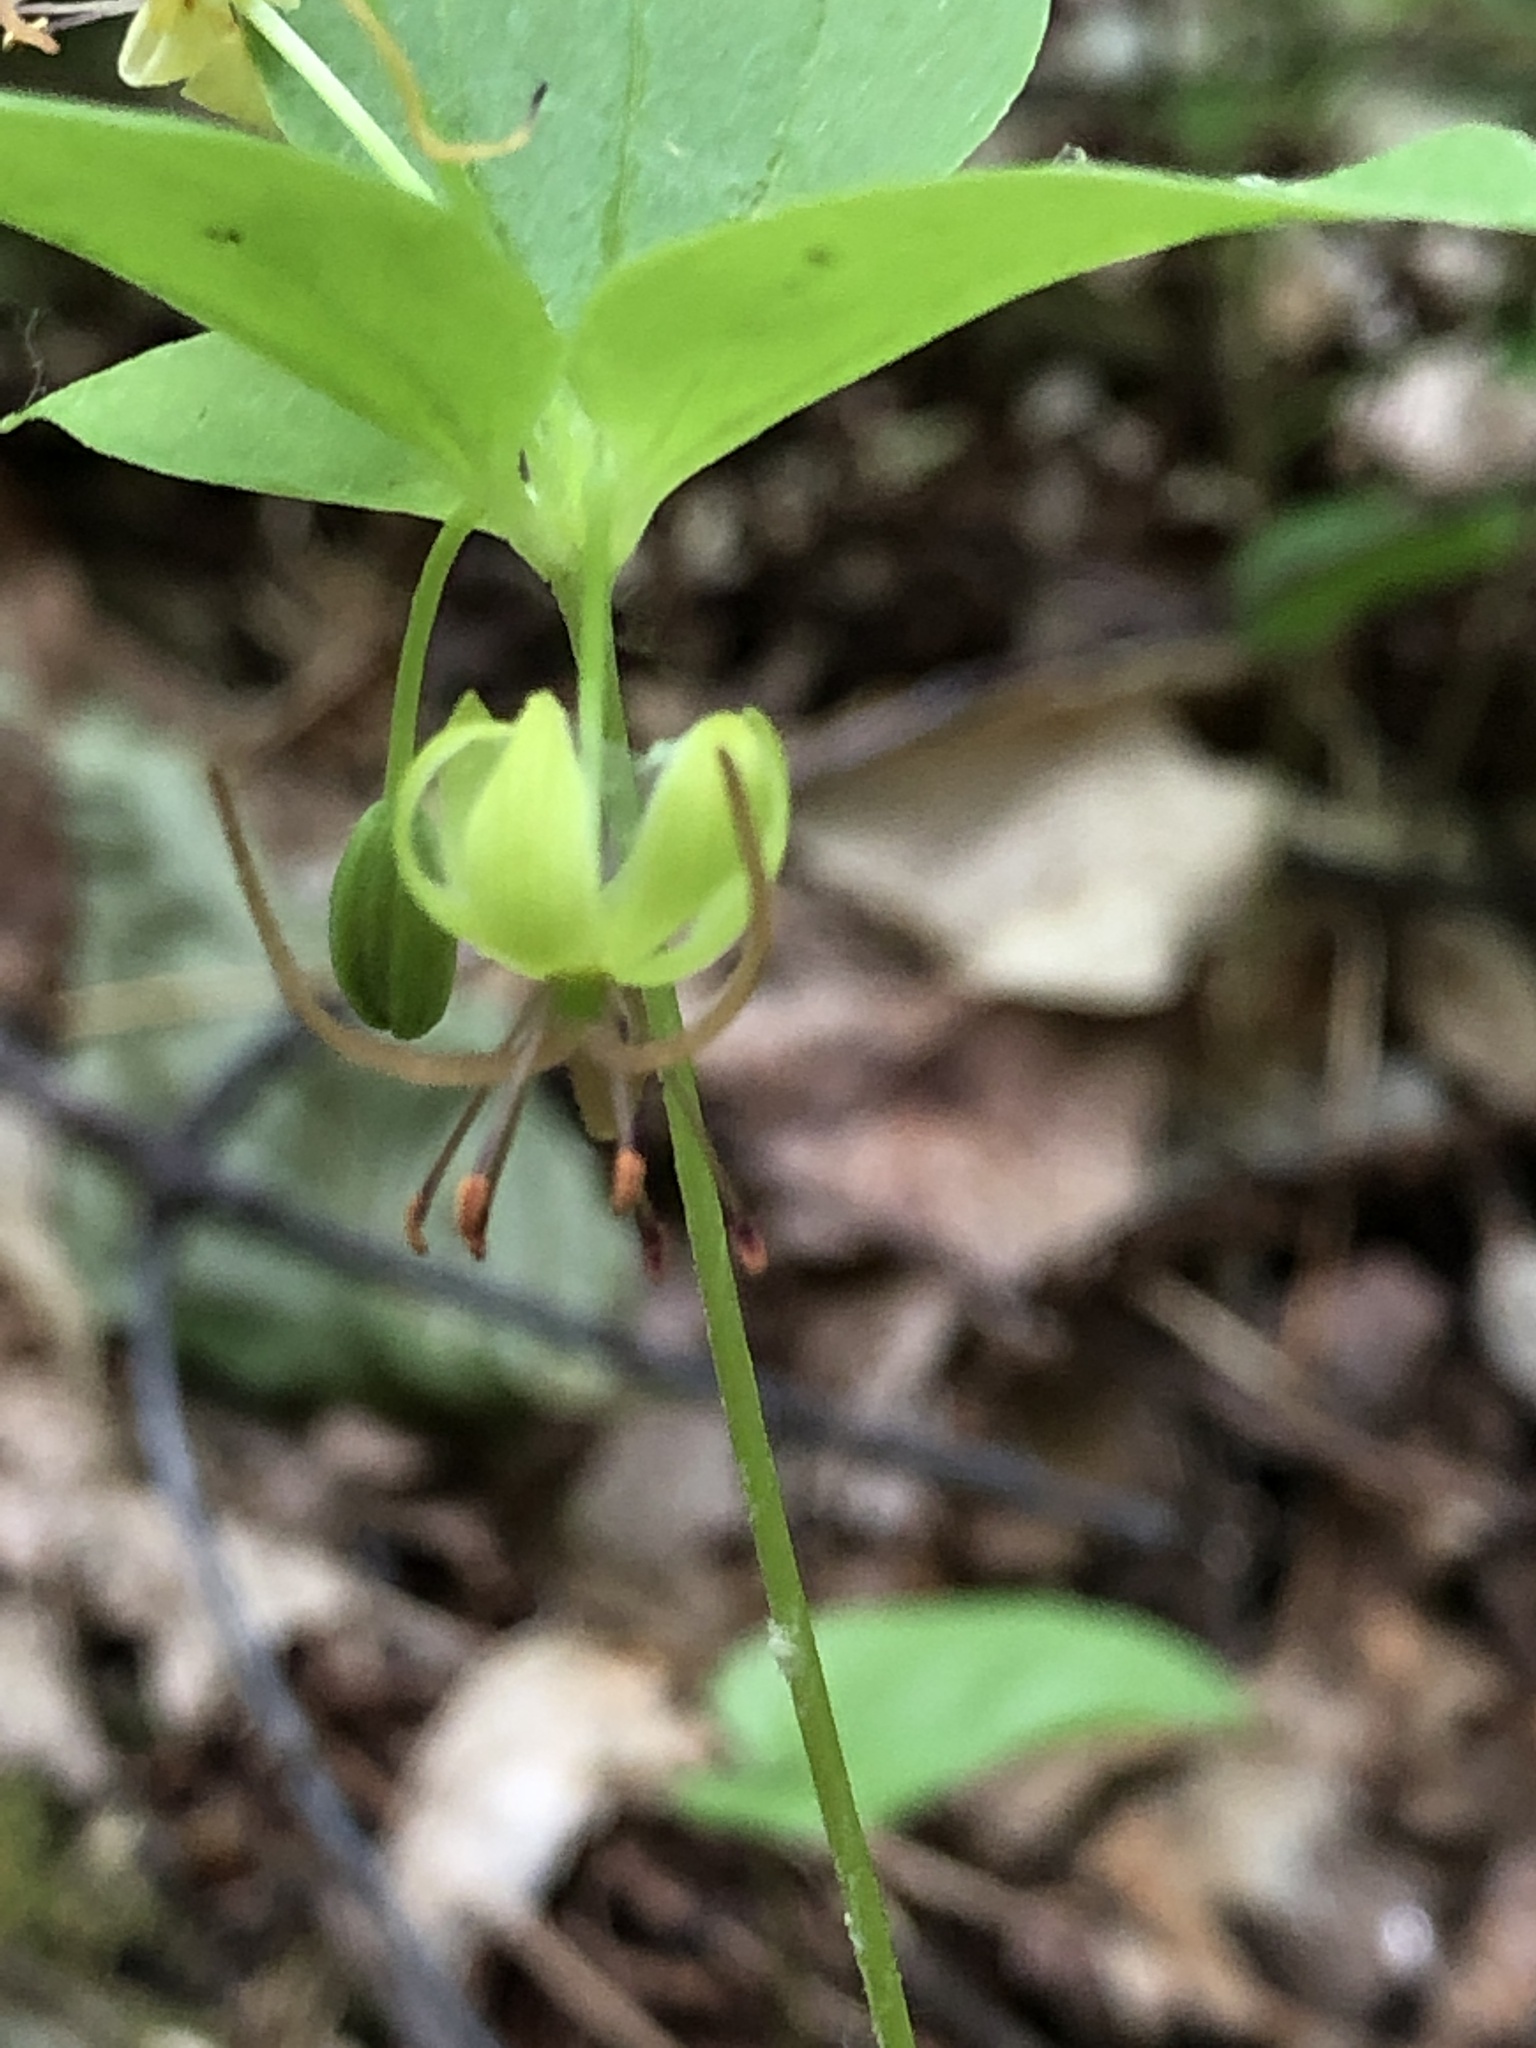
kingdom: Plantae
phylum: Tracheophyta
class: Liliopsida
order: Liliales
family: Liliaceae
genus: Medeola
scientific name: Medeola virginiana
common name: Indian cucumber-root
